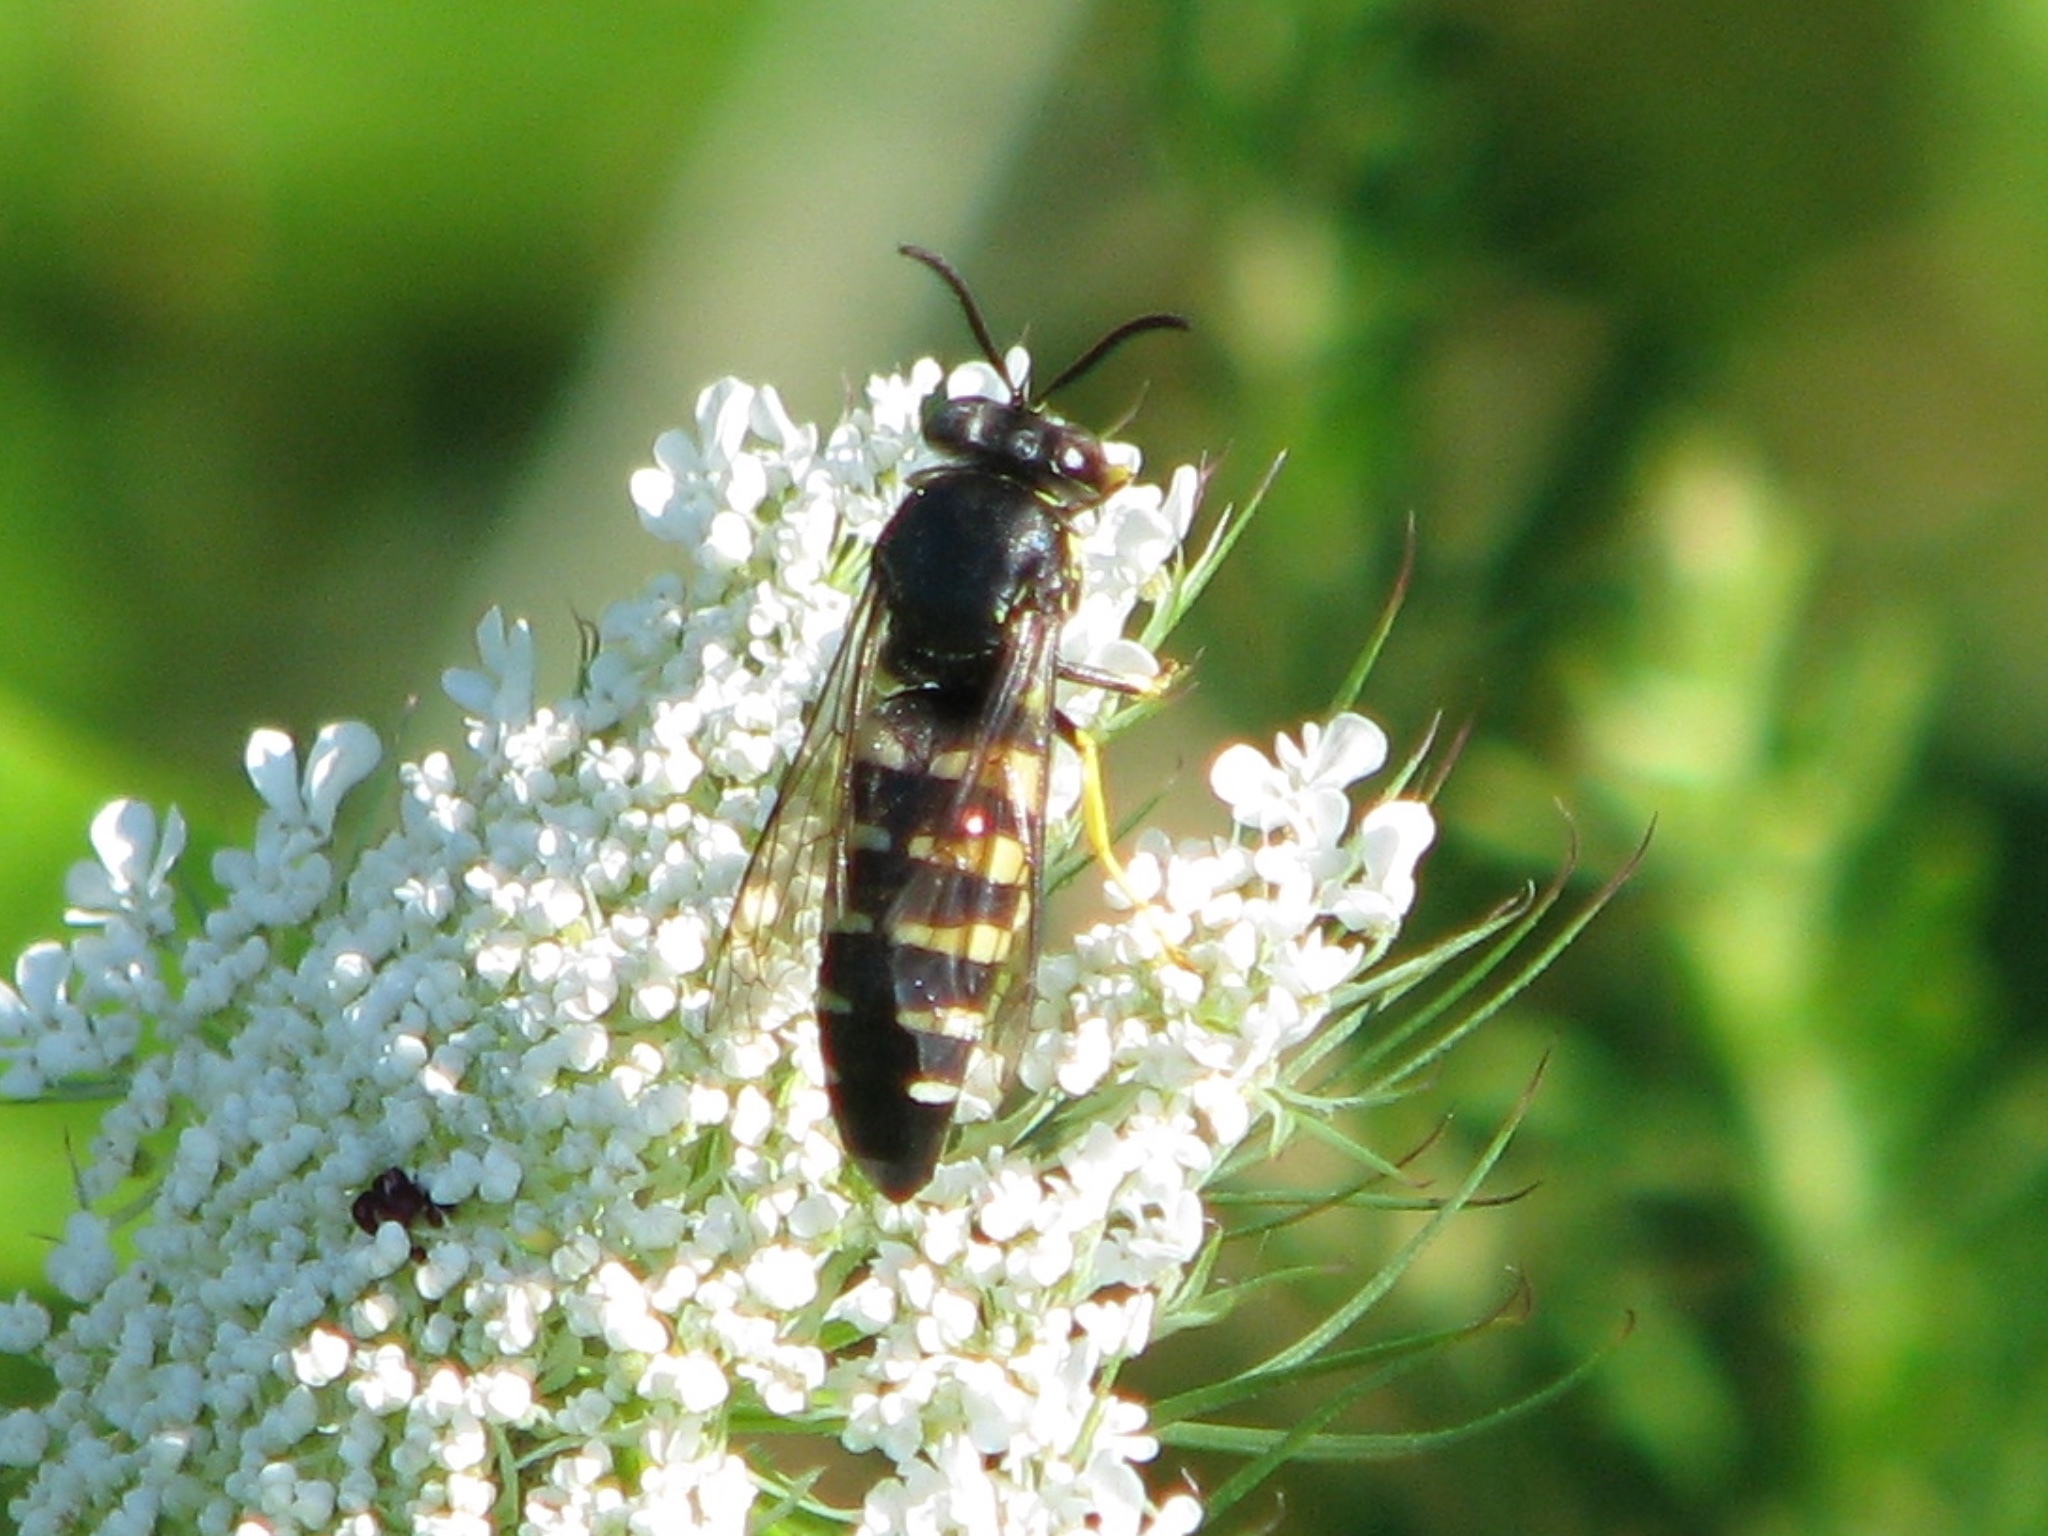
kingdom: Animalia
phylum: Arthropoda
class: Insecta
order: Hymenoptera
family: Crabronidae
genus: Bicyrtes
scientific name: Bicyrtes quadrifasciatus
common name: Four-banded stink bug hunter wasp
